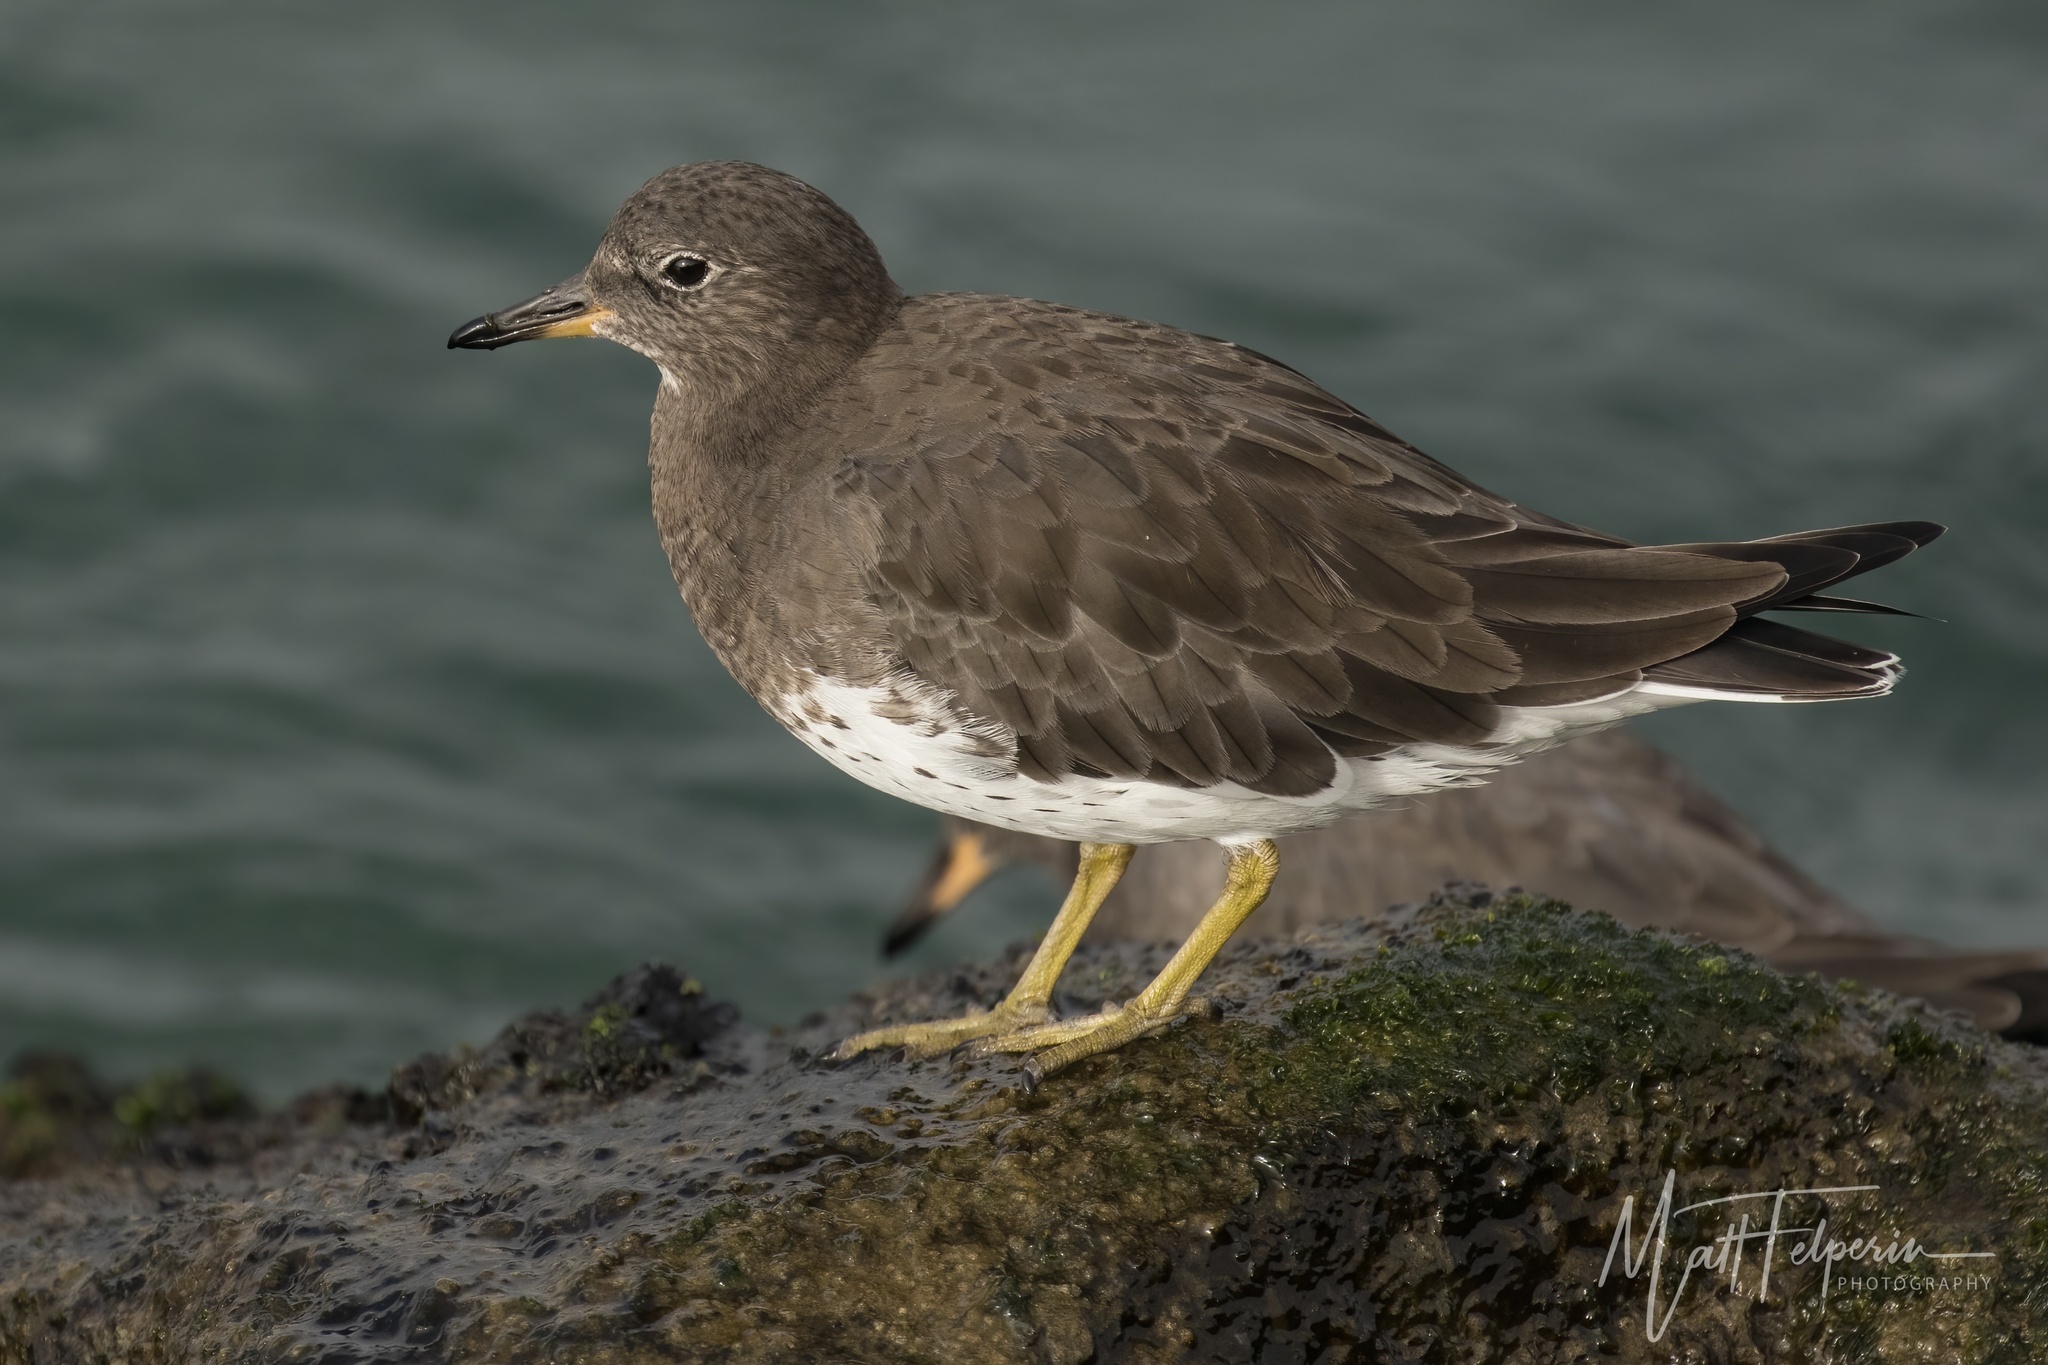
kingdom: Animalia
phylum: Chordata
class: Aves
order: Charadriiformes
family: Scolopacidae
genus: Calidris
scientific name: Calidris virgata
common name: Surfbird
